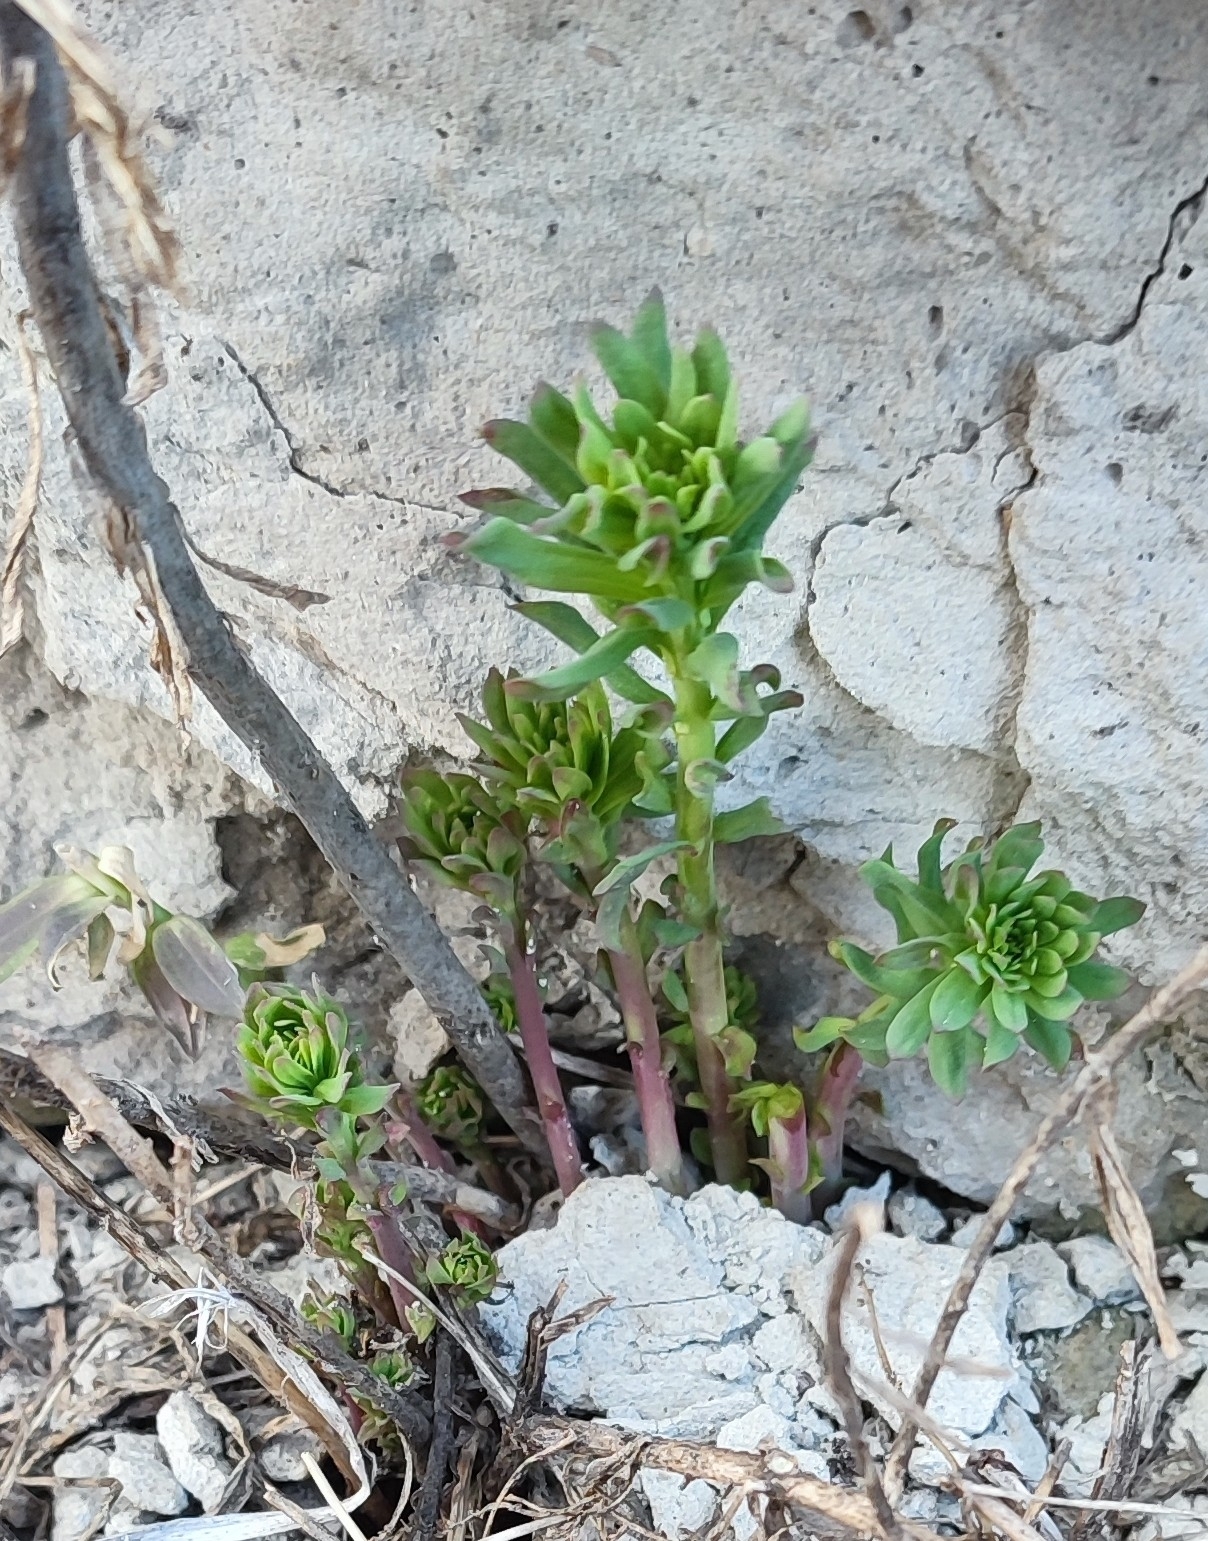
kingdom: Plantae
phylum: Tracheophyta
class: Magnoliopsida
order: Malpighiales
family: Euphorbiaceae
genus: Euphorbia
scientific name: Euphorbia virgata
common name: Leafy spurge
